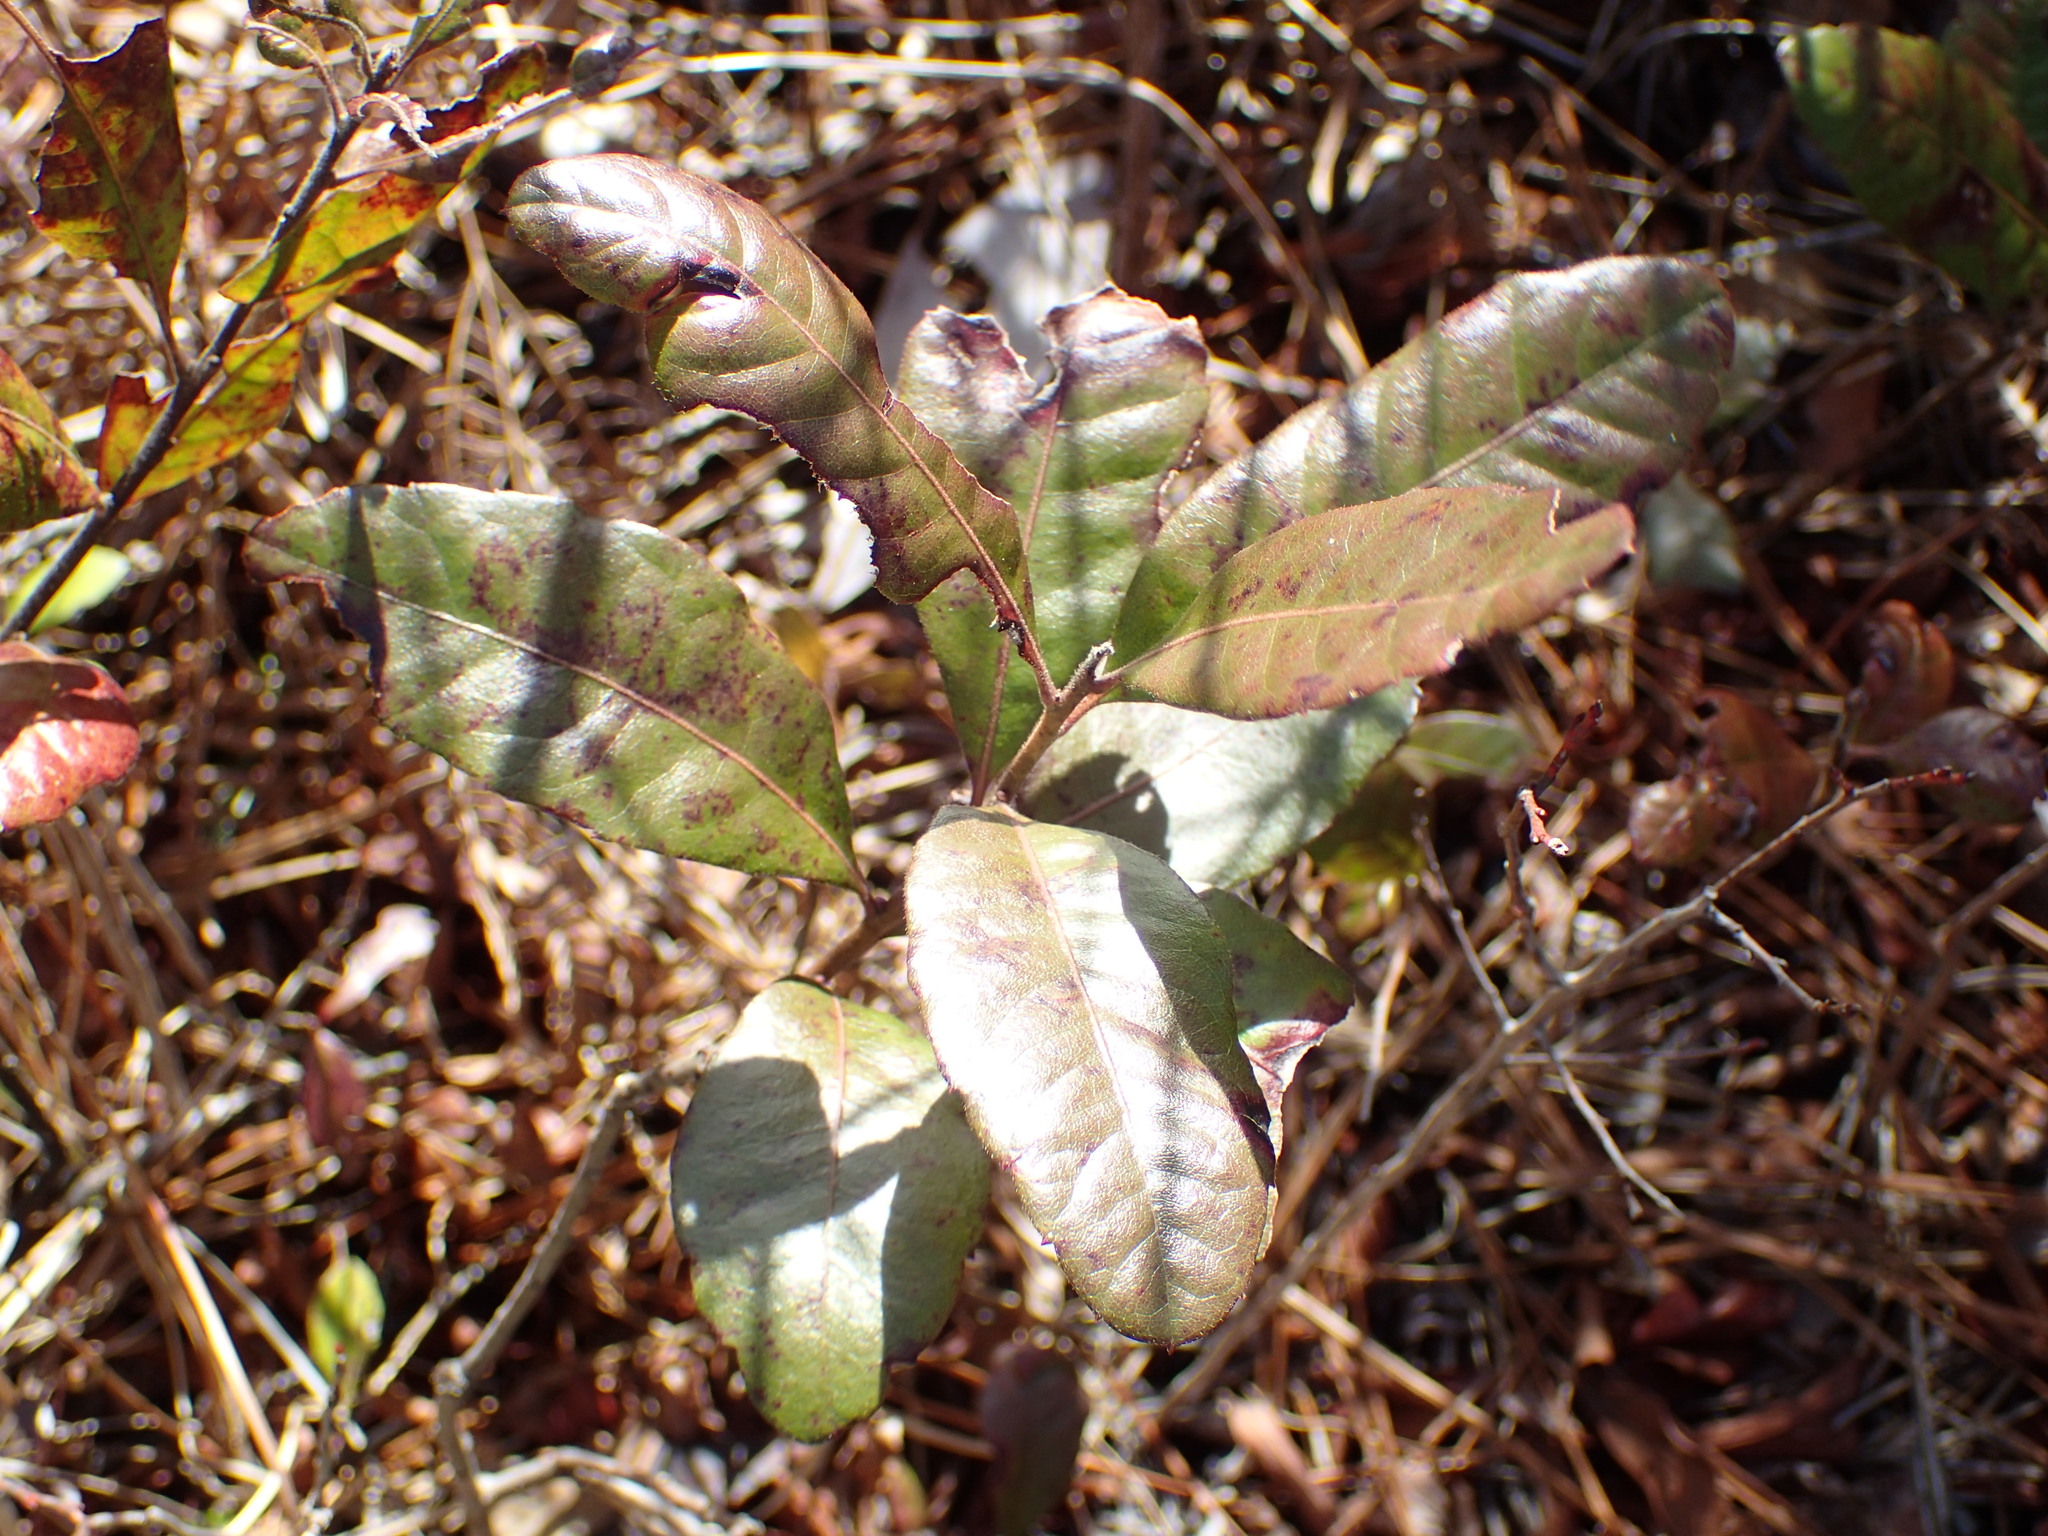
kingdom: Plantae
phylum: Tracheophyta
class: Magnoliopsida
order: Fagales
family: Myricaceae
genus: Morella
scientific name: Morella caroliniensis
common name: Evergreen bayberry
